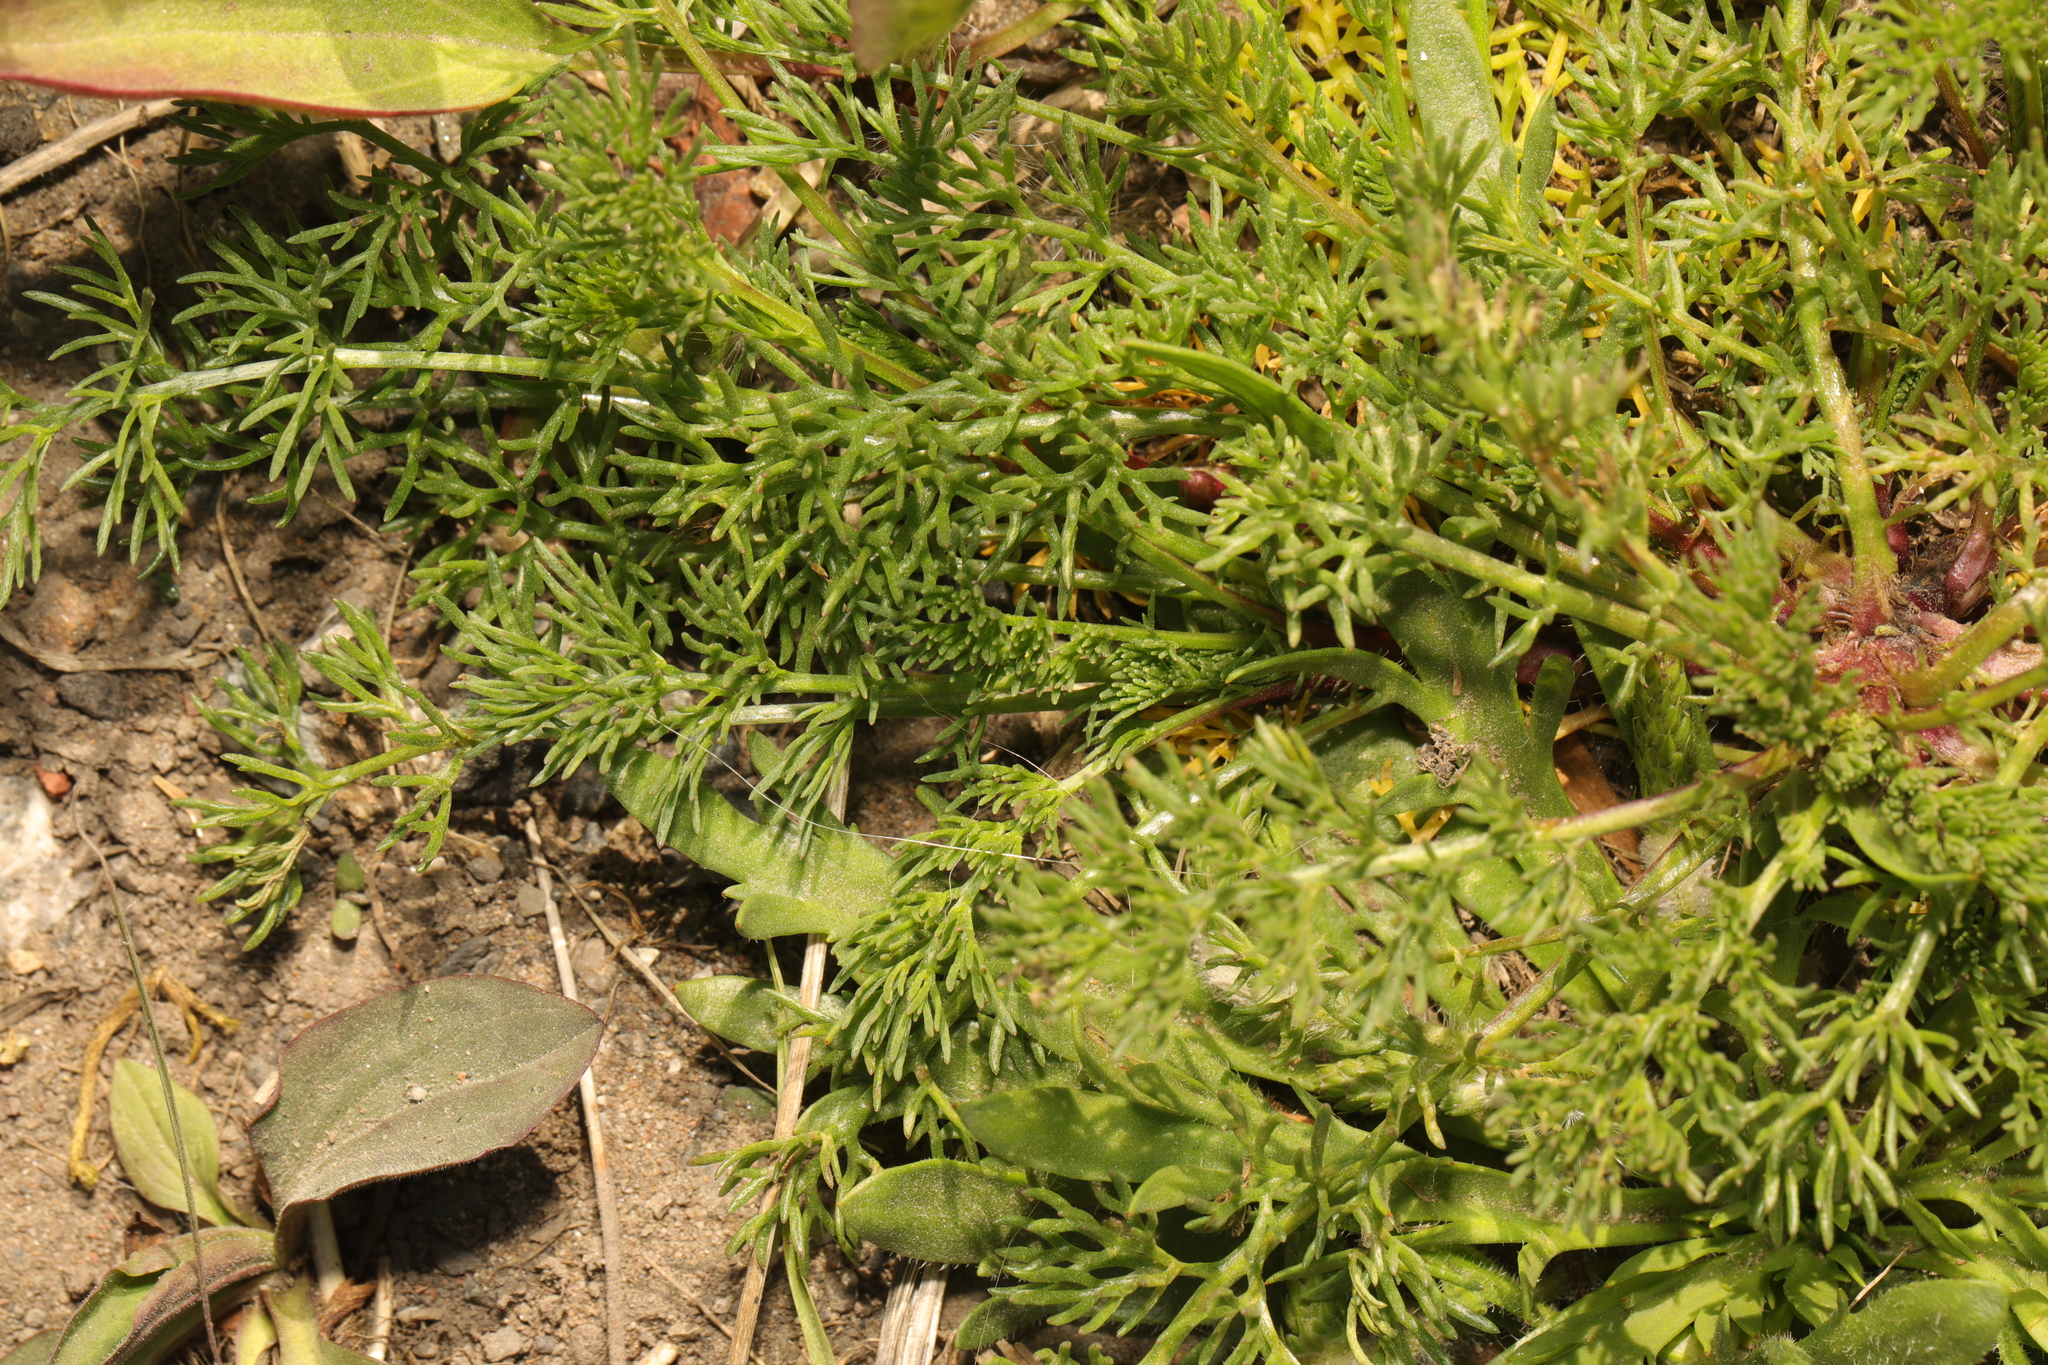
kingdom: Plantae
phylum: Tracheophyta
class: Magnoliopsida
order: Asterales
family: Asteraceae
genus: Tripleurospermum
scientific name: Tripleurospermum maritimum
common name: Sea mayweed
